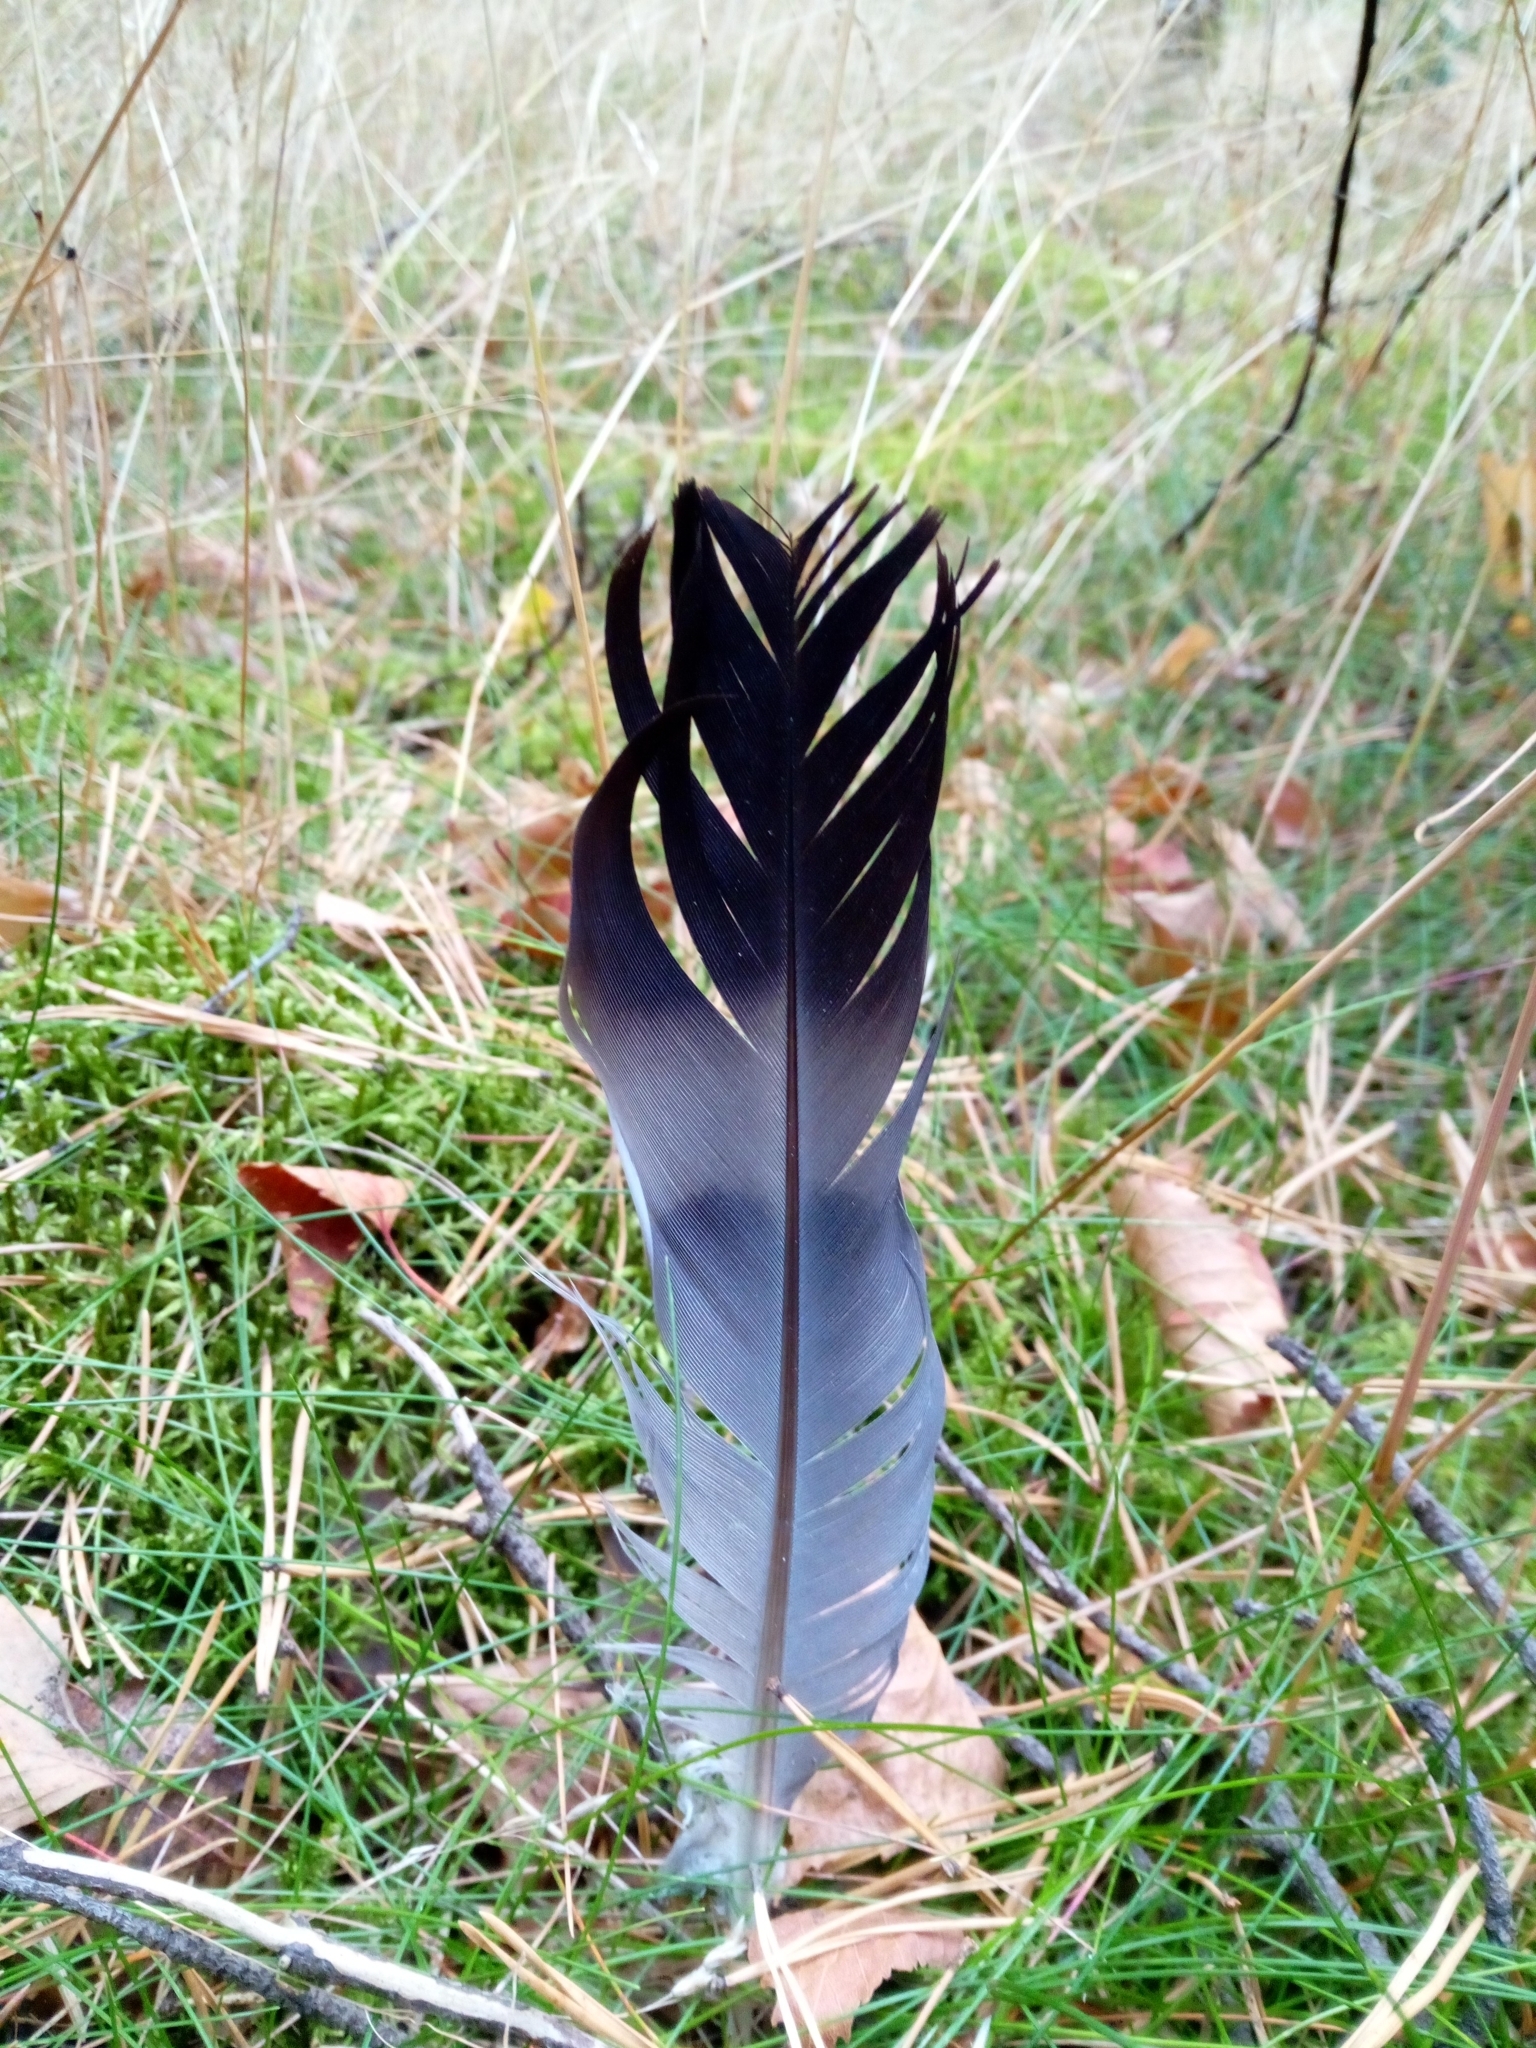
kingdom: Animalia
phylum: Chordata
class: Aves
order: Columbiformes
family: Columbidae
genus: Columba
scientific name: Columba palumbus
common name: Common wood pigeon
